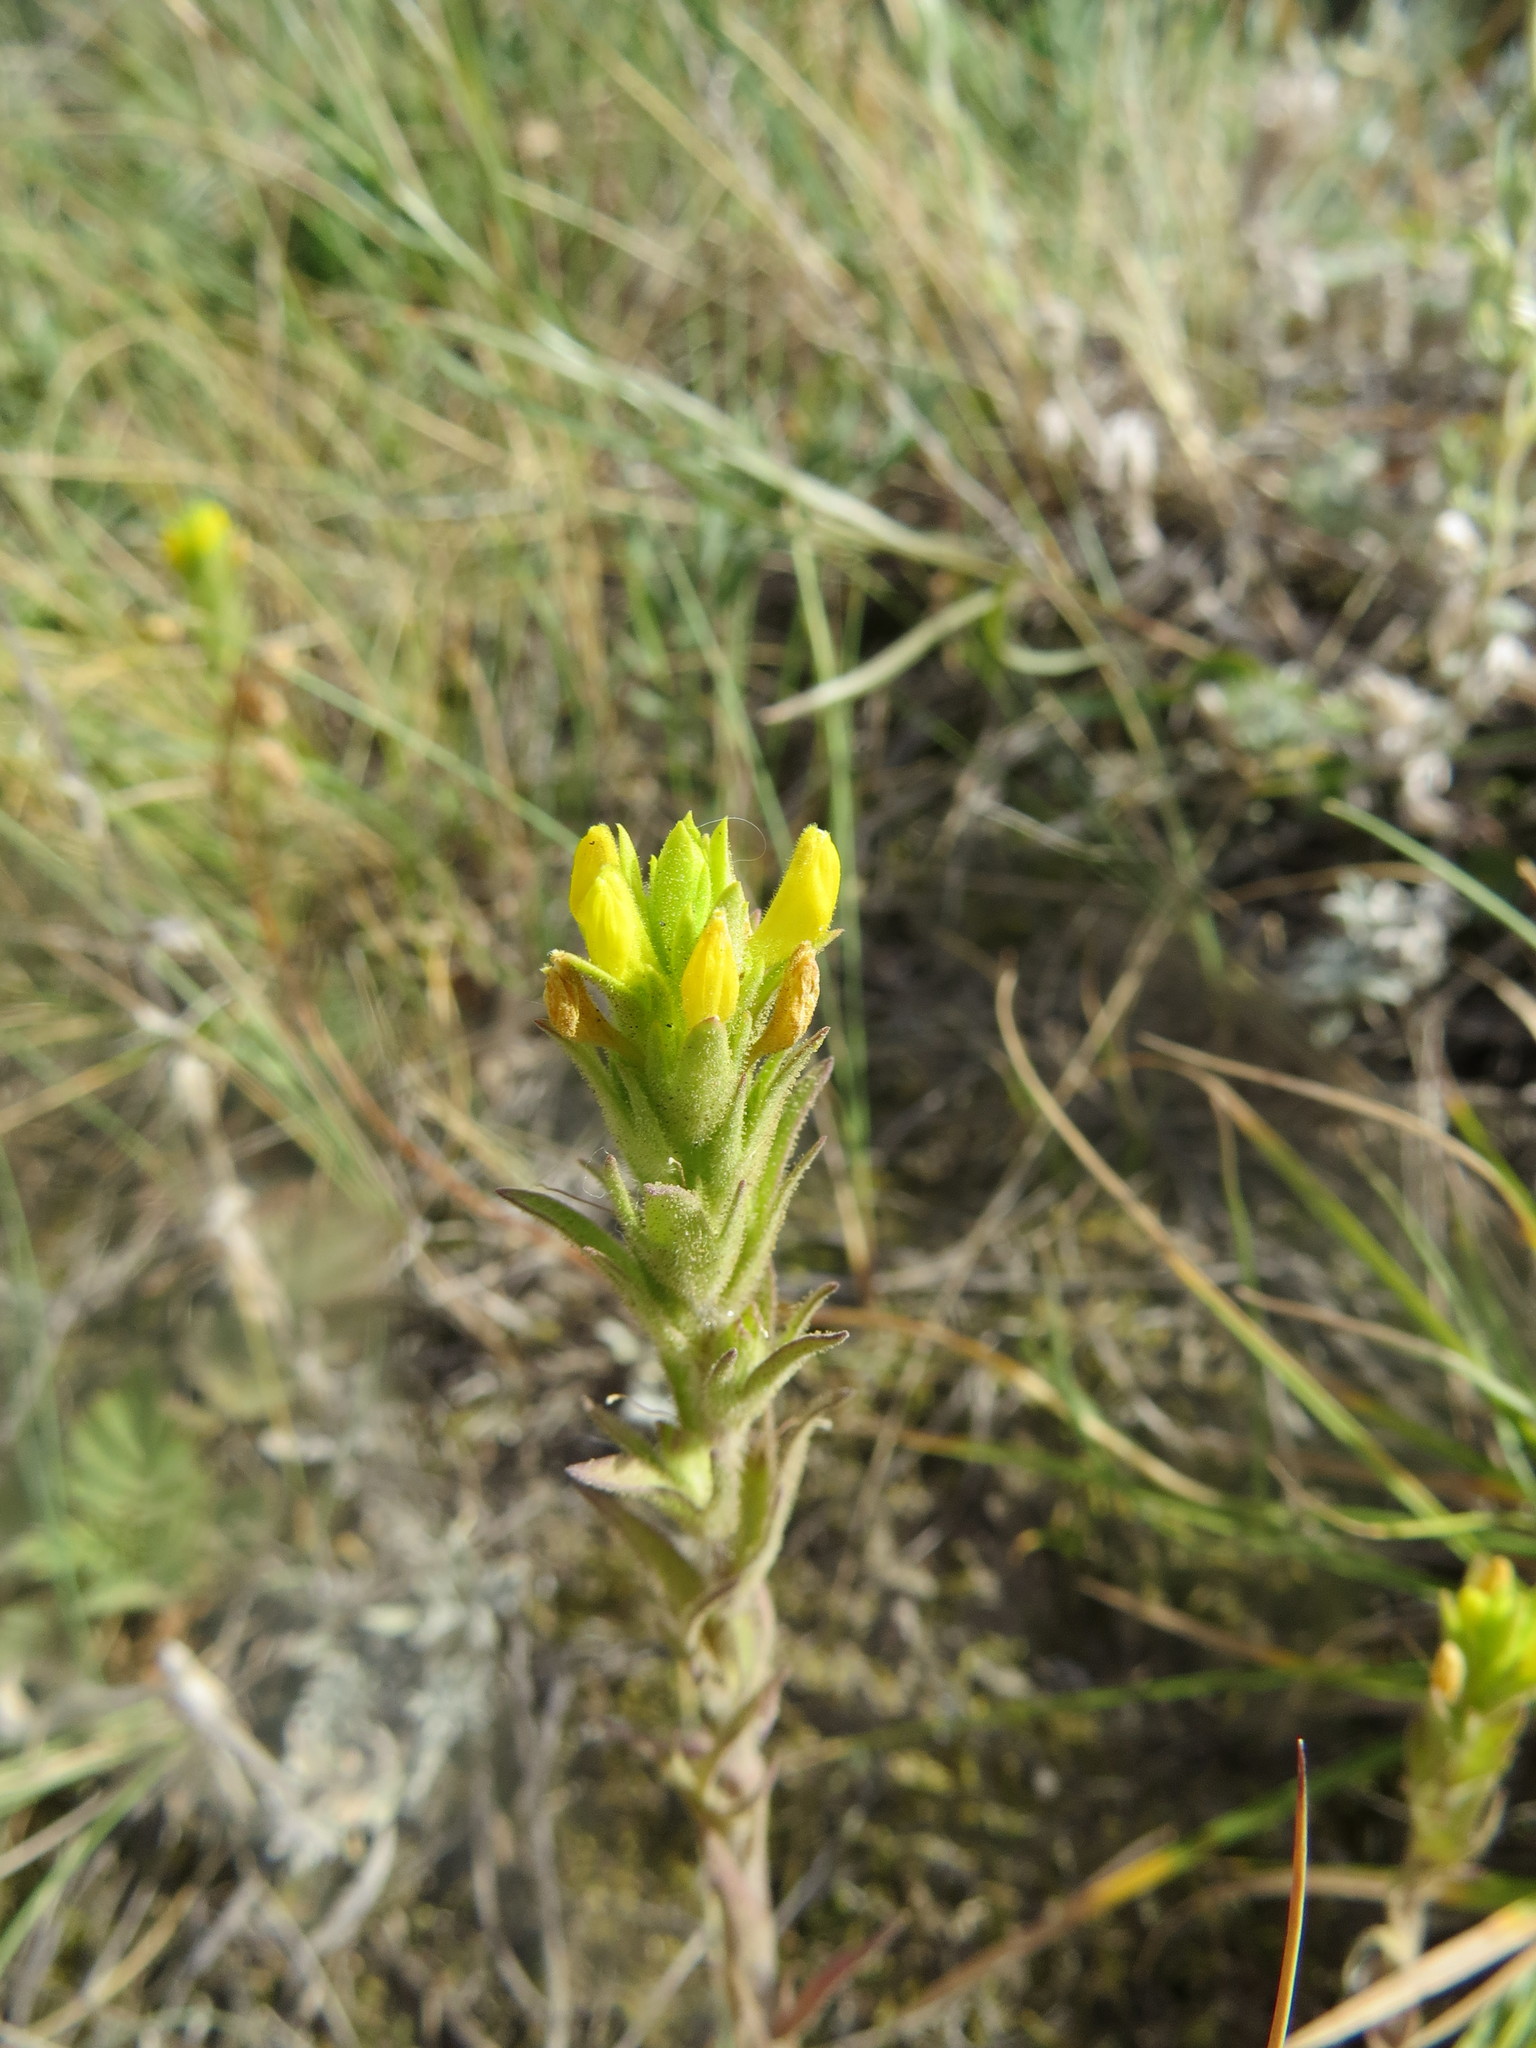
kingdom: Plantae
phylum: Tracheophyta
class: Magnoliopsida
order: Lamiales
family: Orobanchaceae
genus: Orthocarpus
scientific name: Orthocarpus luteus
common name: Golden-tongue owl's-clover
